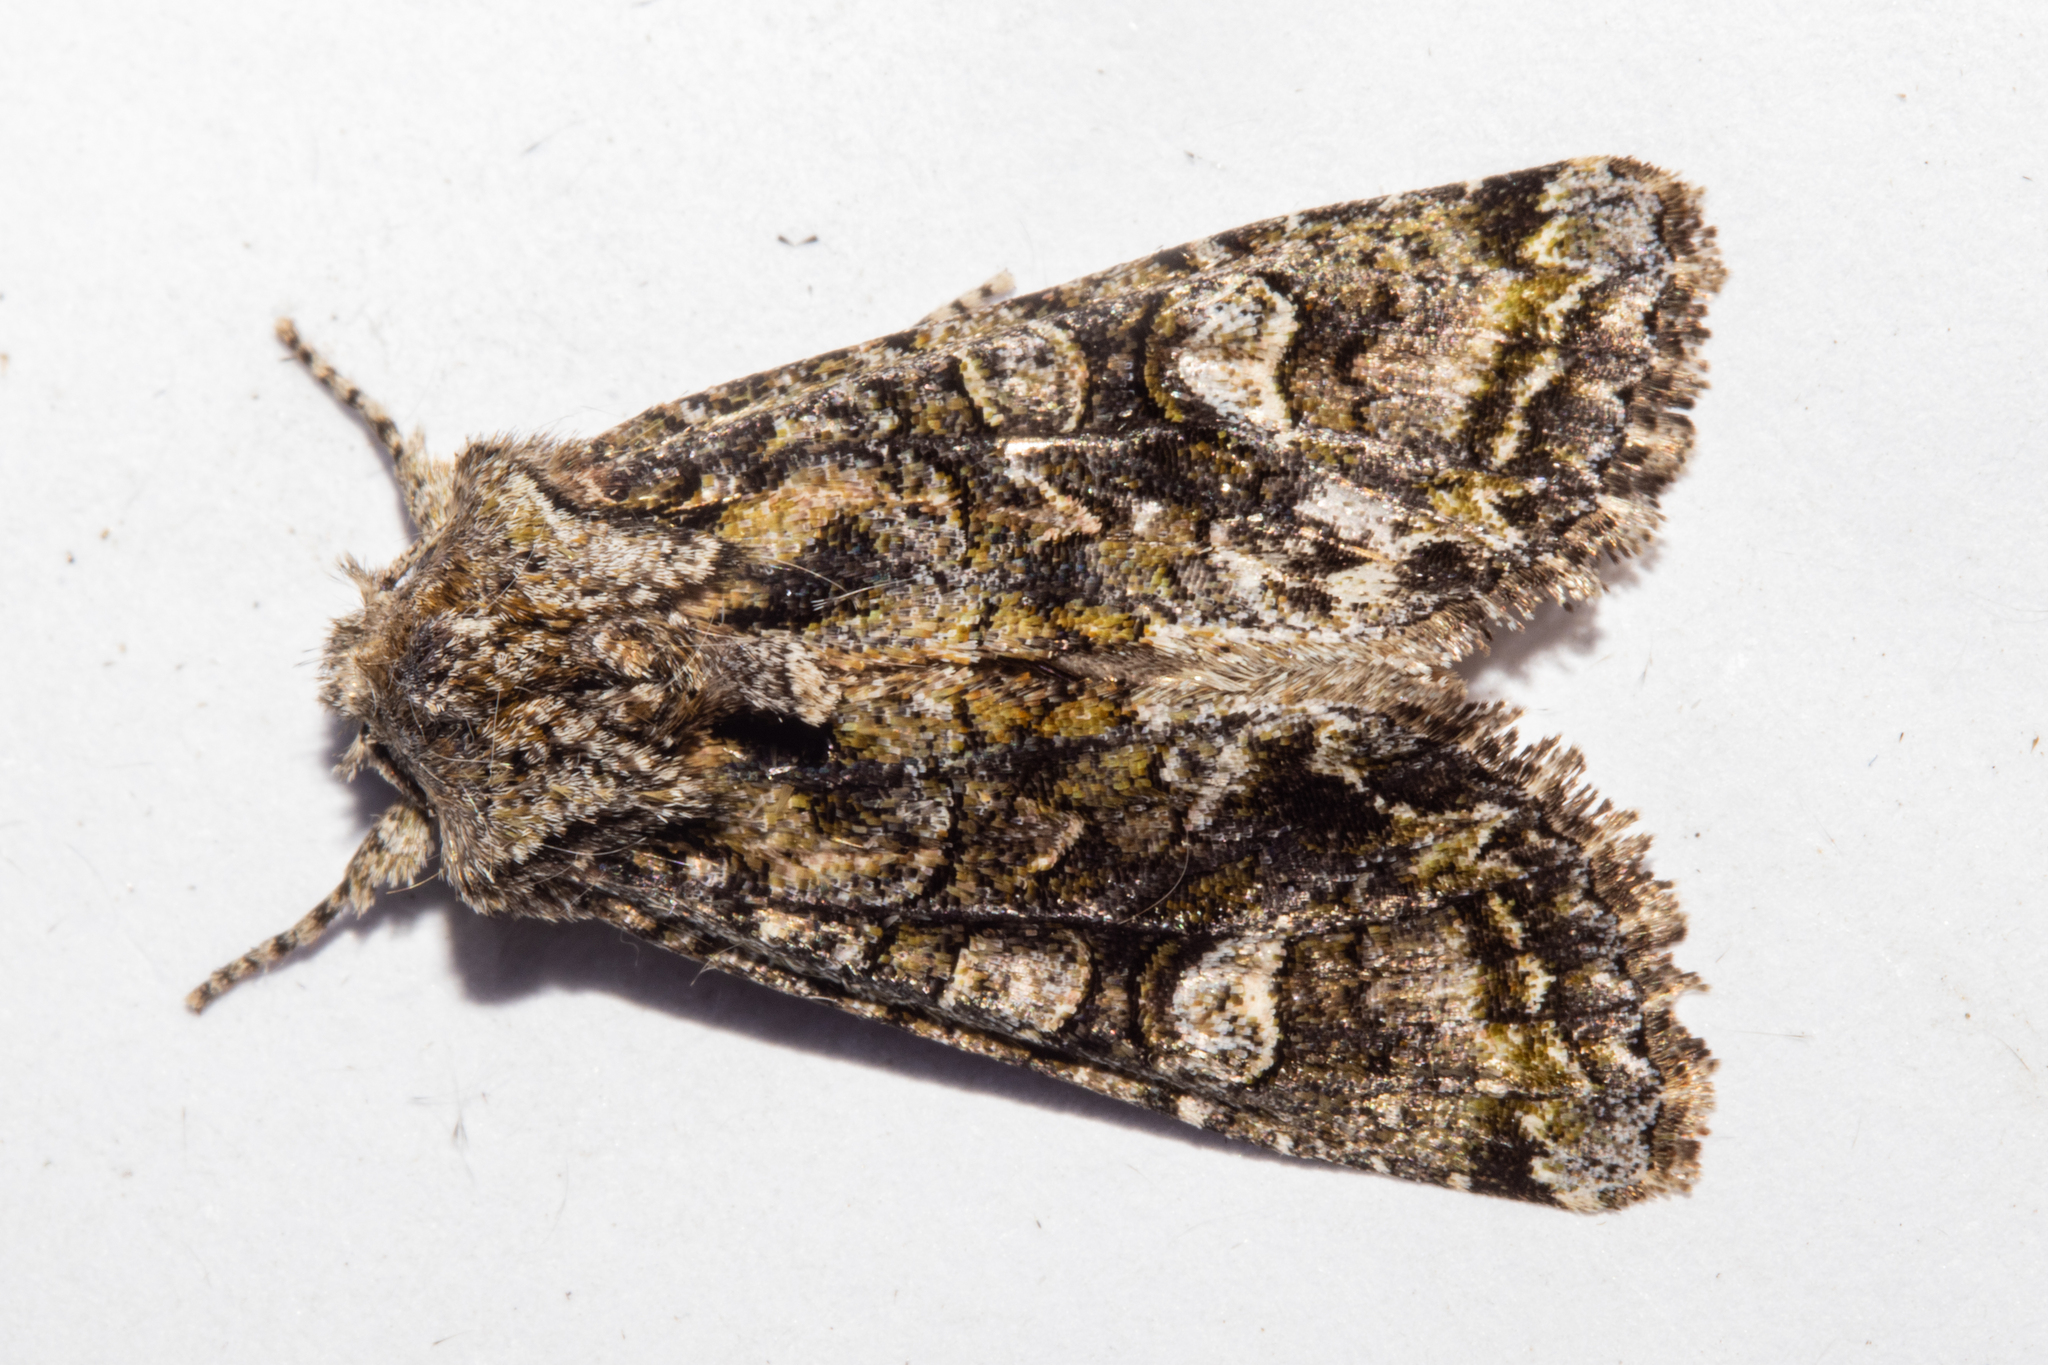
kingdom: Animalia
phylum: Arthropoda
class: Insecta
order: Lepidoptera
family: Noctuidae
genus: Ichneutica
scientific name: Ichneutica insignis
